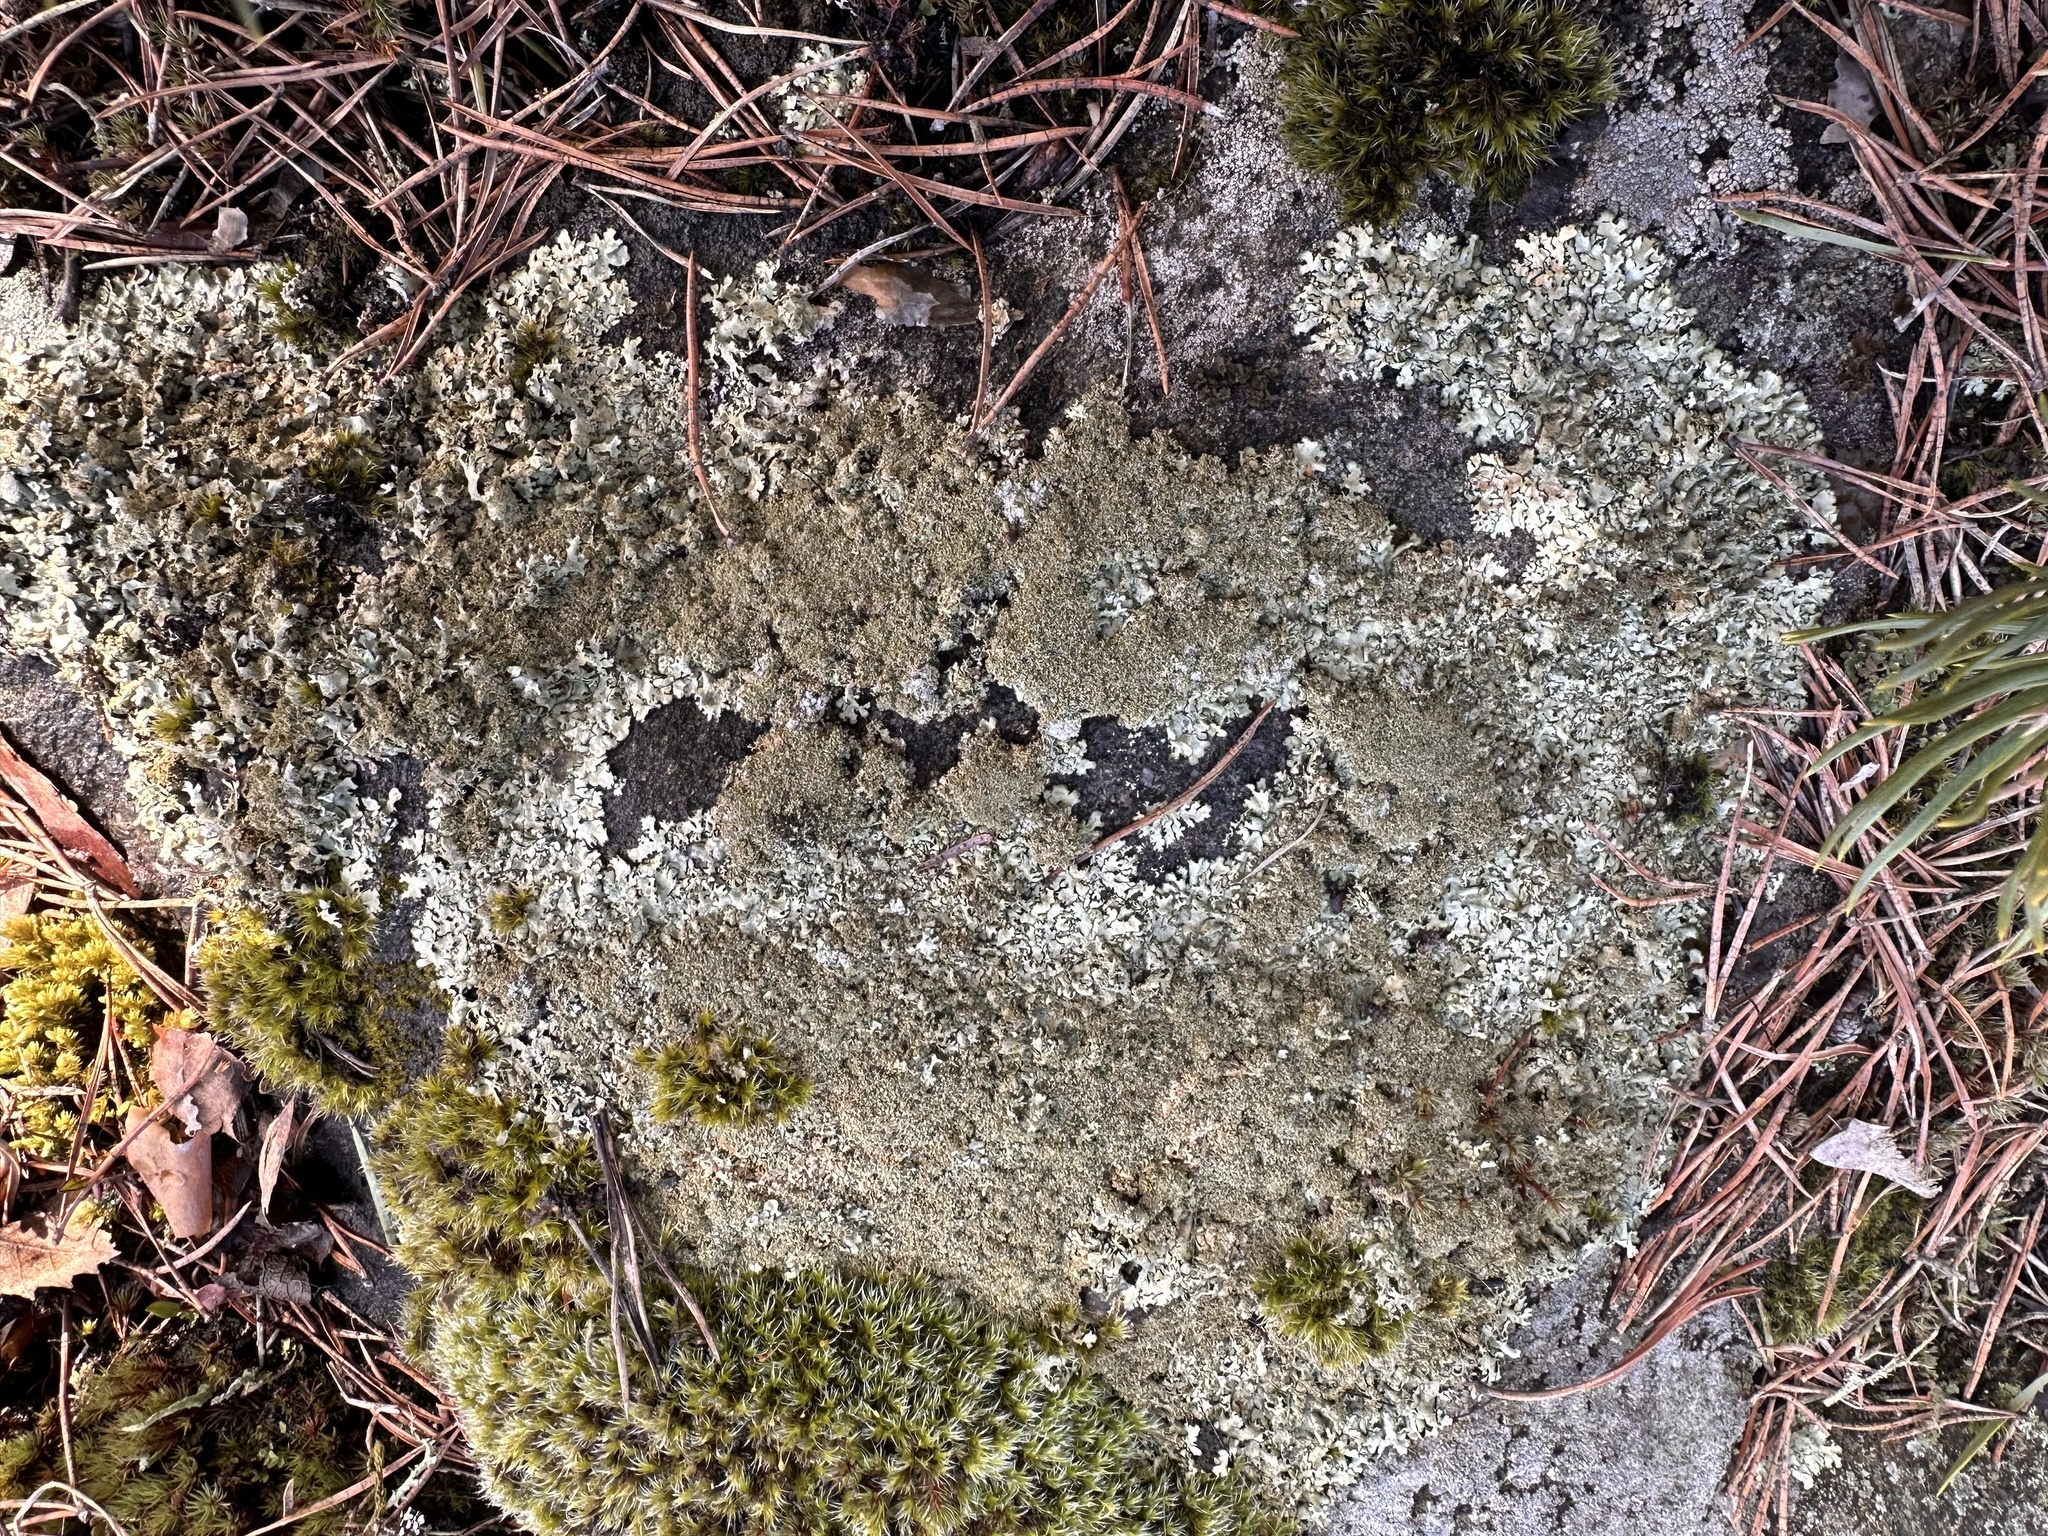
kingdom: Fungi
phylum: Ascomycota
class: Lecanoromycetes
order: Lecanorales
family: Parmeliaceae
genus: Xanthoparmelia
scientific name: Xanthoparmelia conspersa
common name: Peppered rock shield
